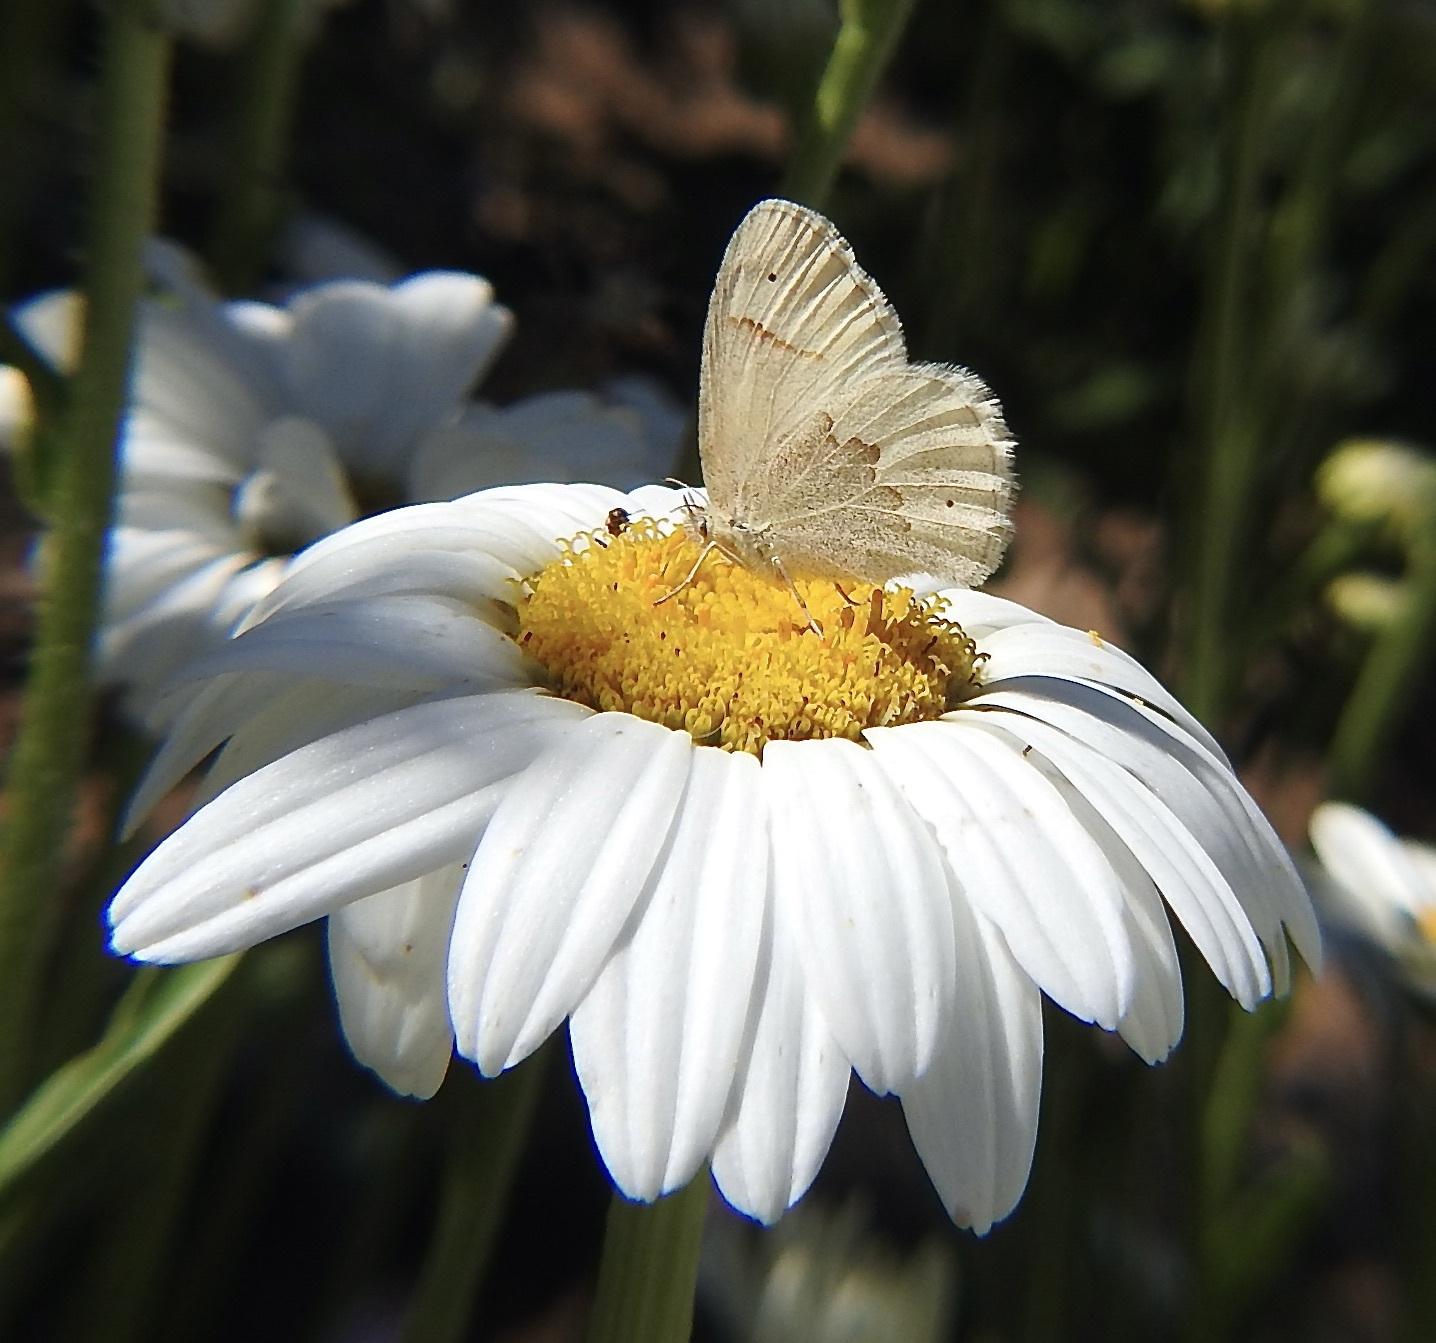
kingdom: Animalia
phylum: Arthropoda
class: Insecta
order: Lepidoptera
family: Nymphalidae
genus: Coenonympha
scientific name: Coenonympha california
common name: Common ringlet
